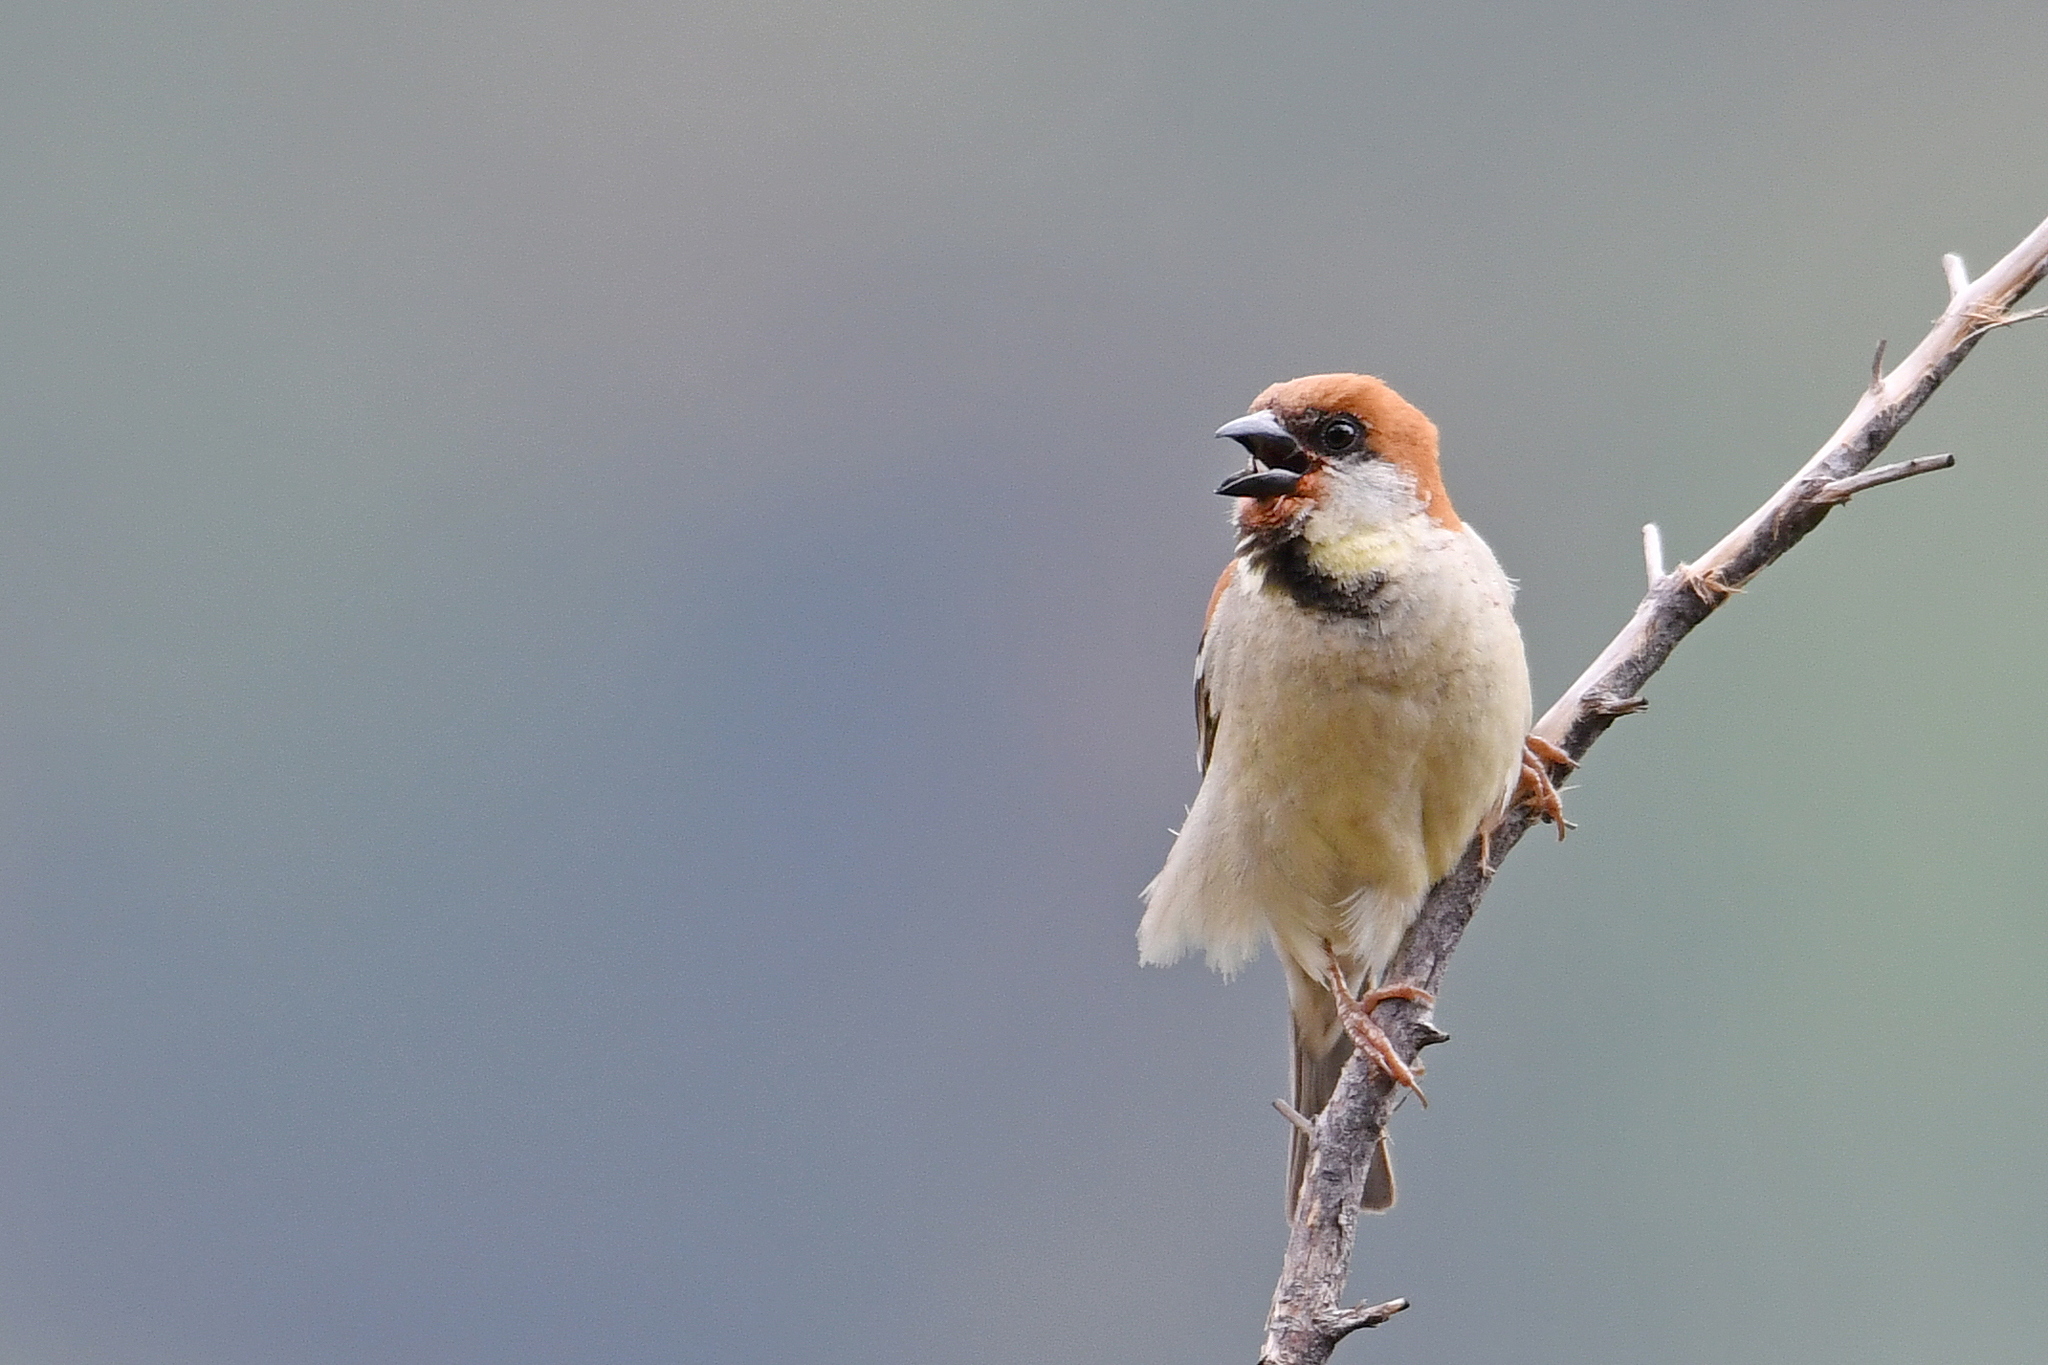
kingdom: Animalia
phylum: Chordata
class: Aves
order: Passeriformes
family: Passeridae
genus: Passer
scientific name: Passer cinnamomeus
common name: Russet sparrow
